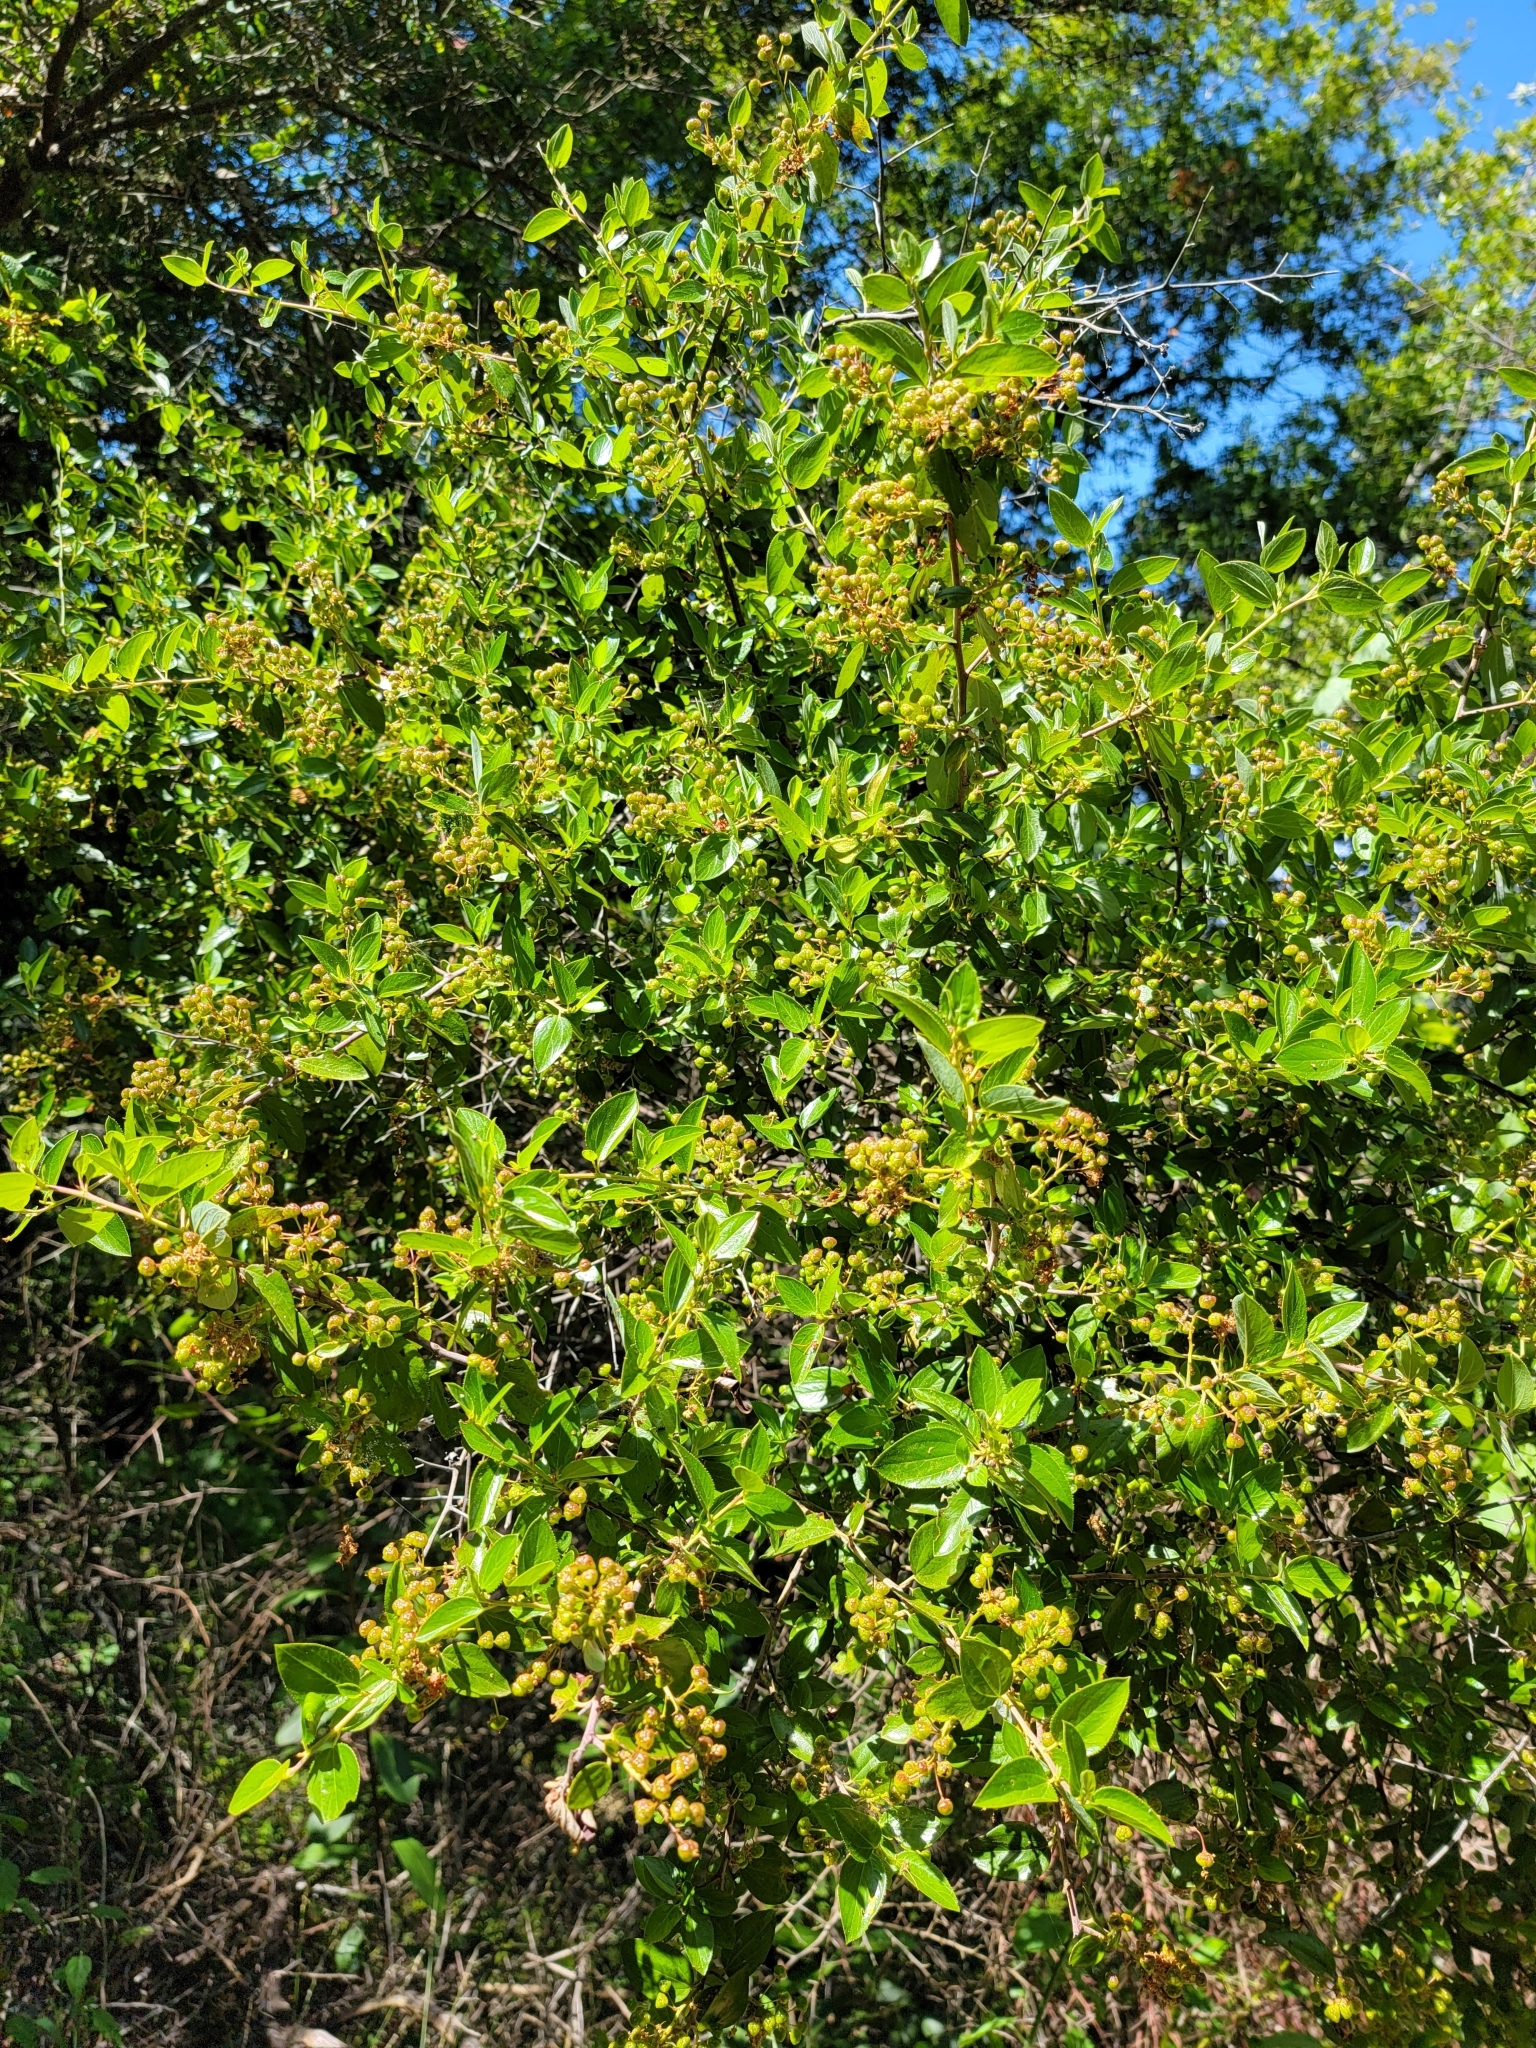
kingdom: Plantae
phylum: Tracheophyta
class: Magnoliopsida
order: Rosales
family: Rhamnaceae
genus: Ceanothus
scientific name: Ceanothus sorediatus
